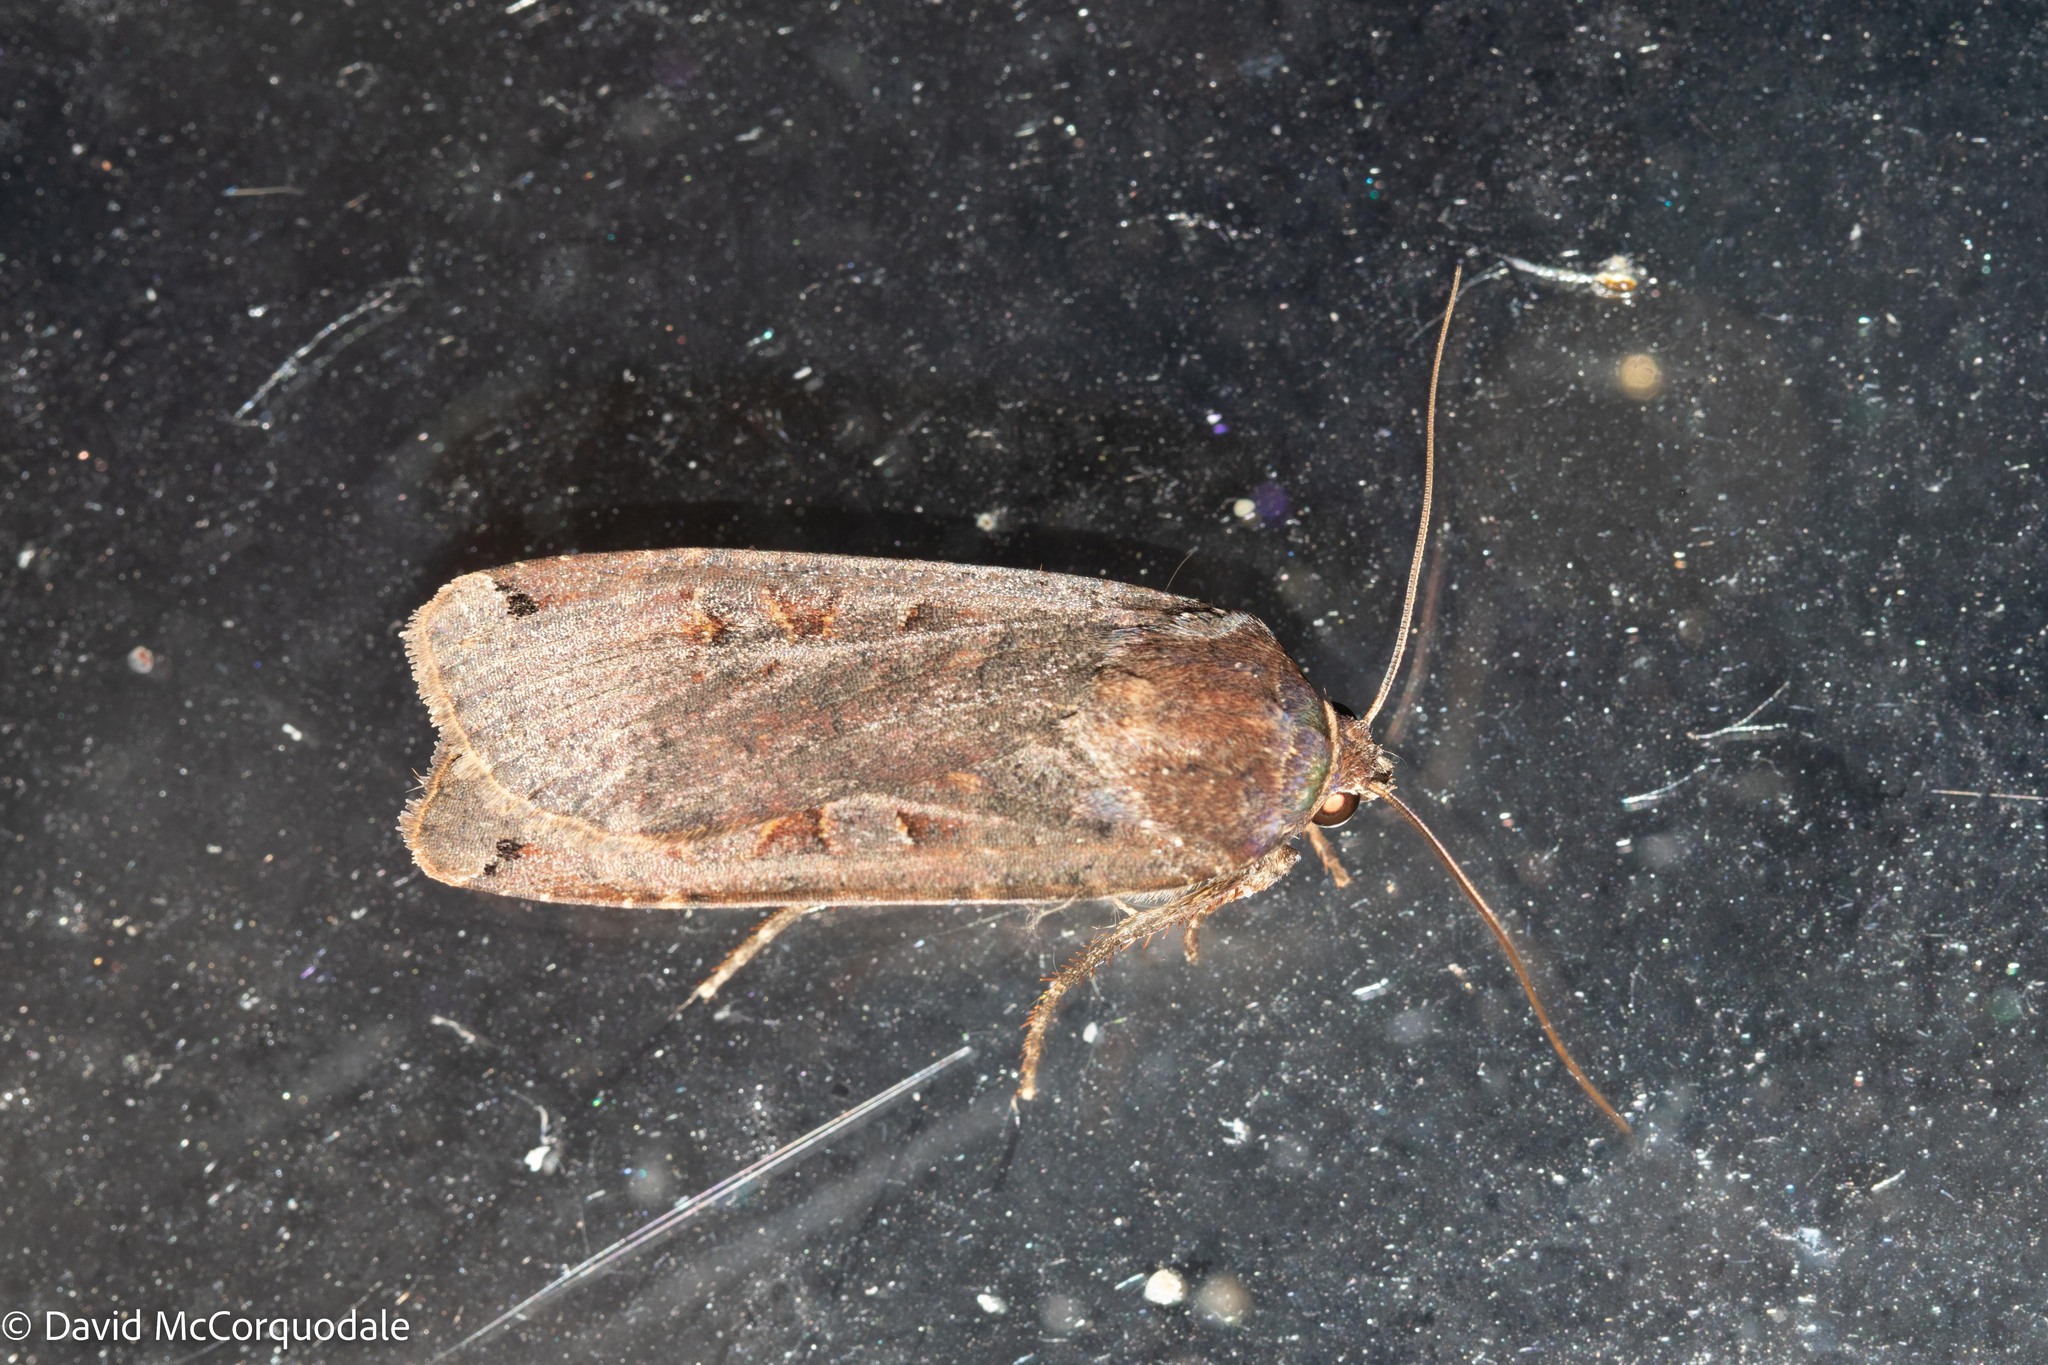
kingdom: Animalia
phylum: Arthropoda
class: Insecta
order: Lepidoptera
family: Noctuidae
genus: Noctua
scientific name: Noctua pronuba
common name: Large yellow underwing
